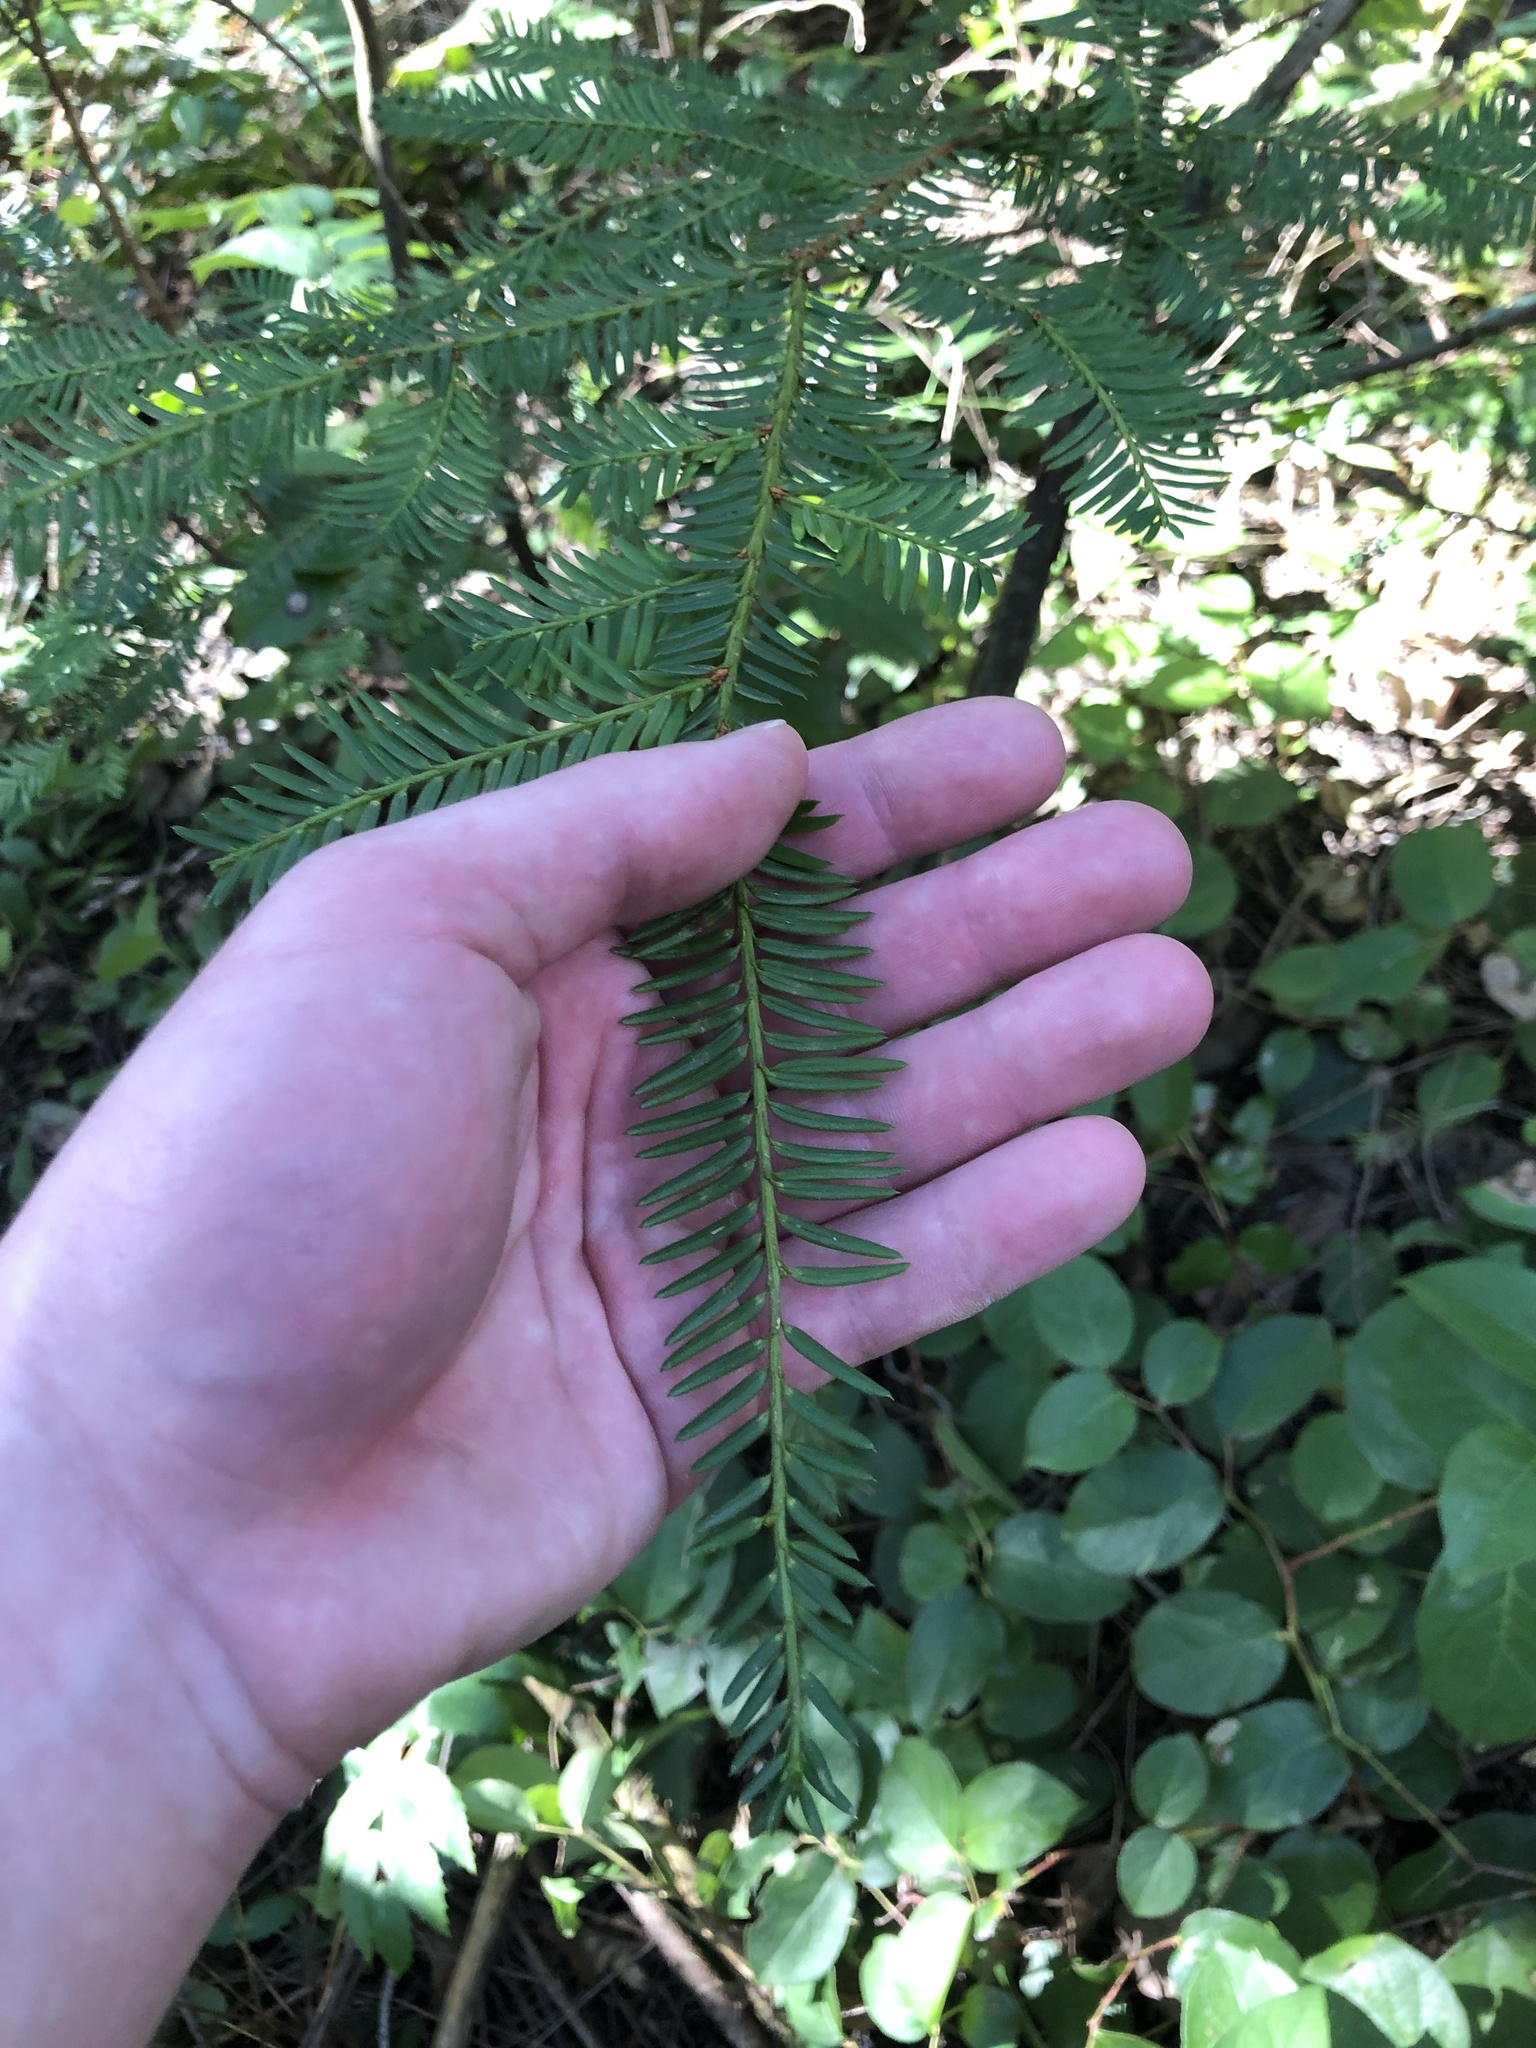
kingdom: Plantae
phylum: Tracheophyta
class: Pinopsida
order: Pinales
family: Taxaceae
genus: Taxus
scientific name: Taxus brevifolia
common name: Pacific yew
